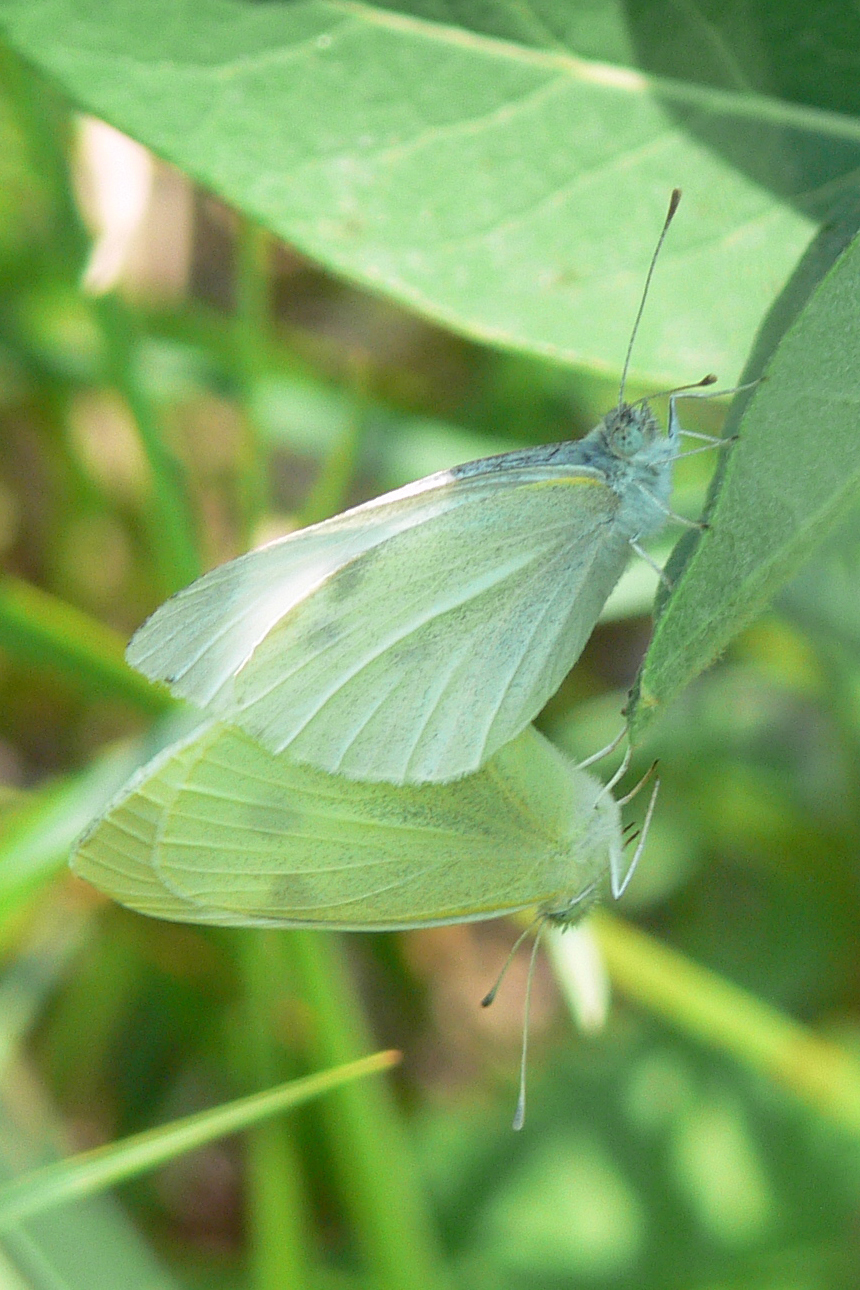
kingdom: Animalia
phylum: Arthropoda
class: Insecta
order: Lepidoptera
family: Pieridae
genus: Pieris
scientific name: Pieris rapae
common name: Small white
